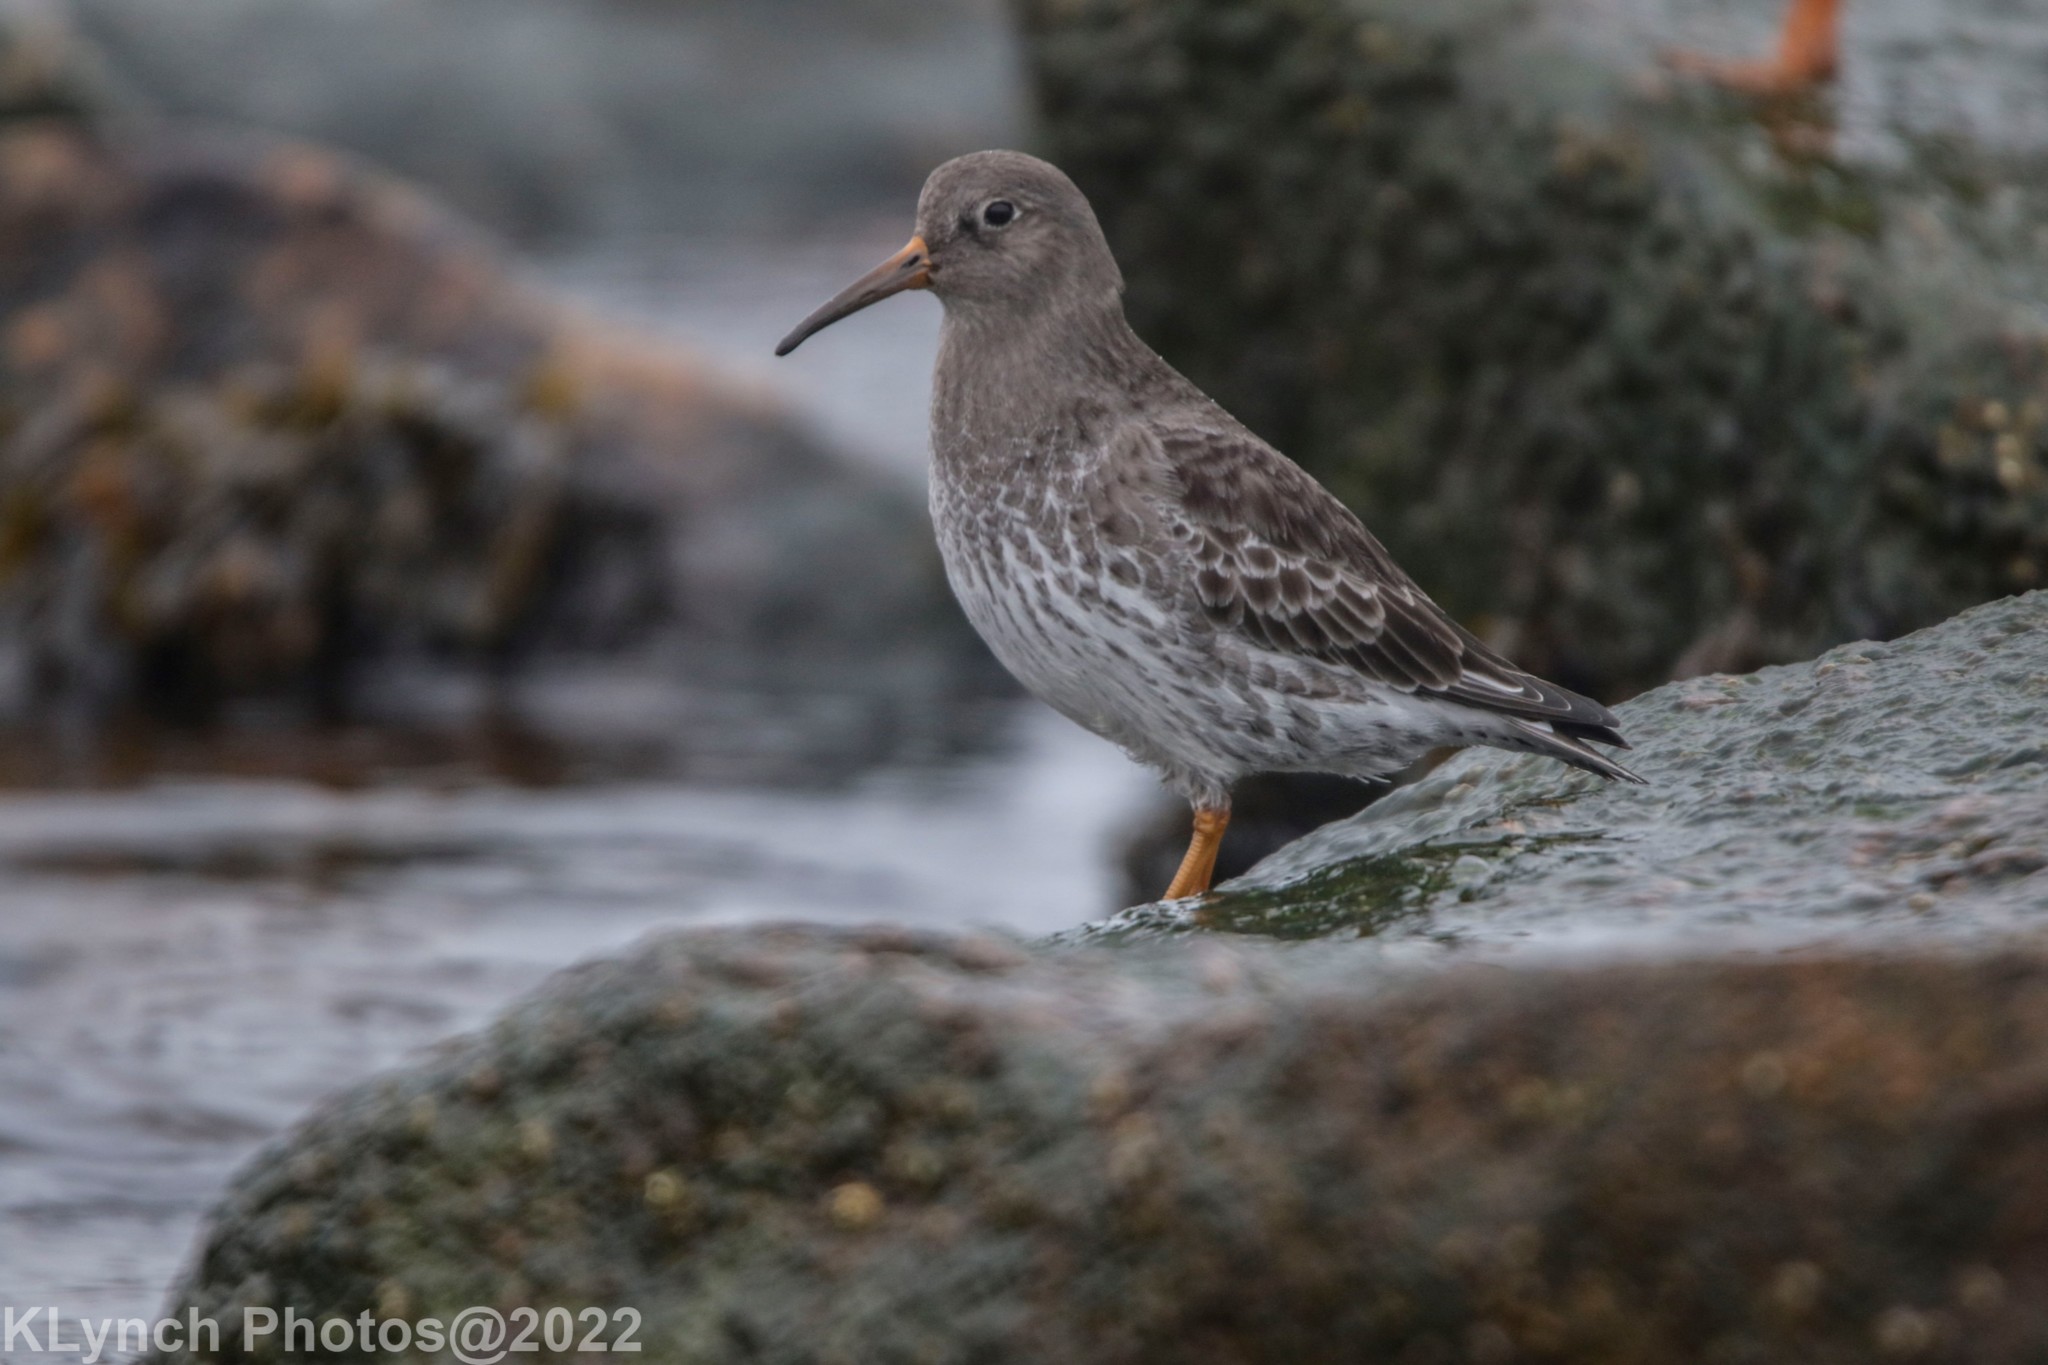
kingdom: Animalia
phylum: Chordata
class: Aves
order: Charadriiformes
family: Scolopacidae
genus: Calidris
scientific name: Calidris maritima
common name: Purple sandpiper
